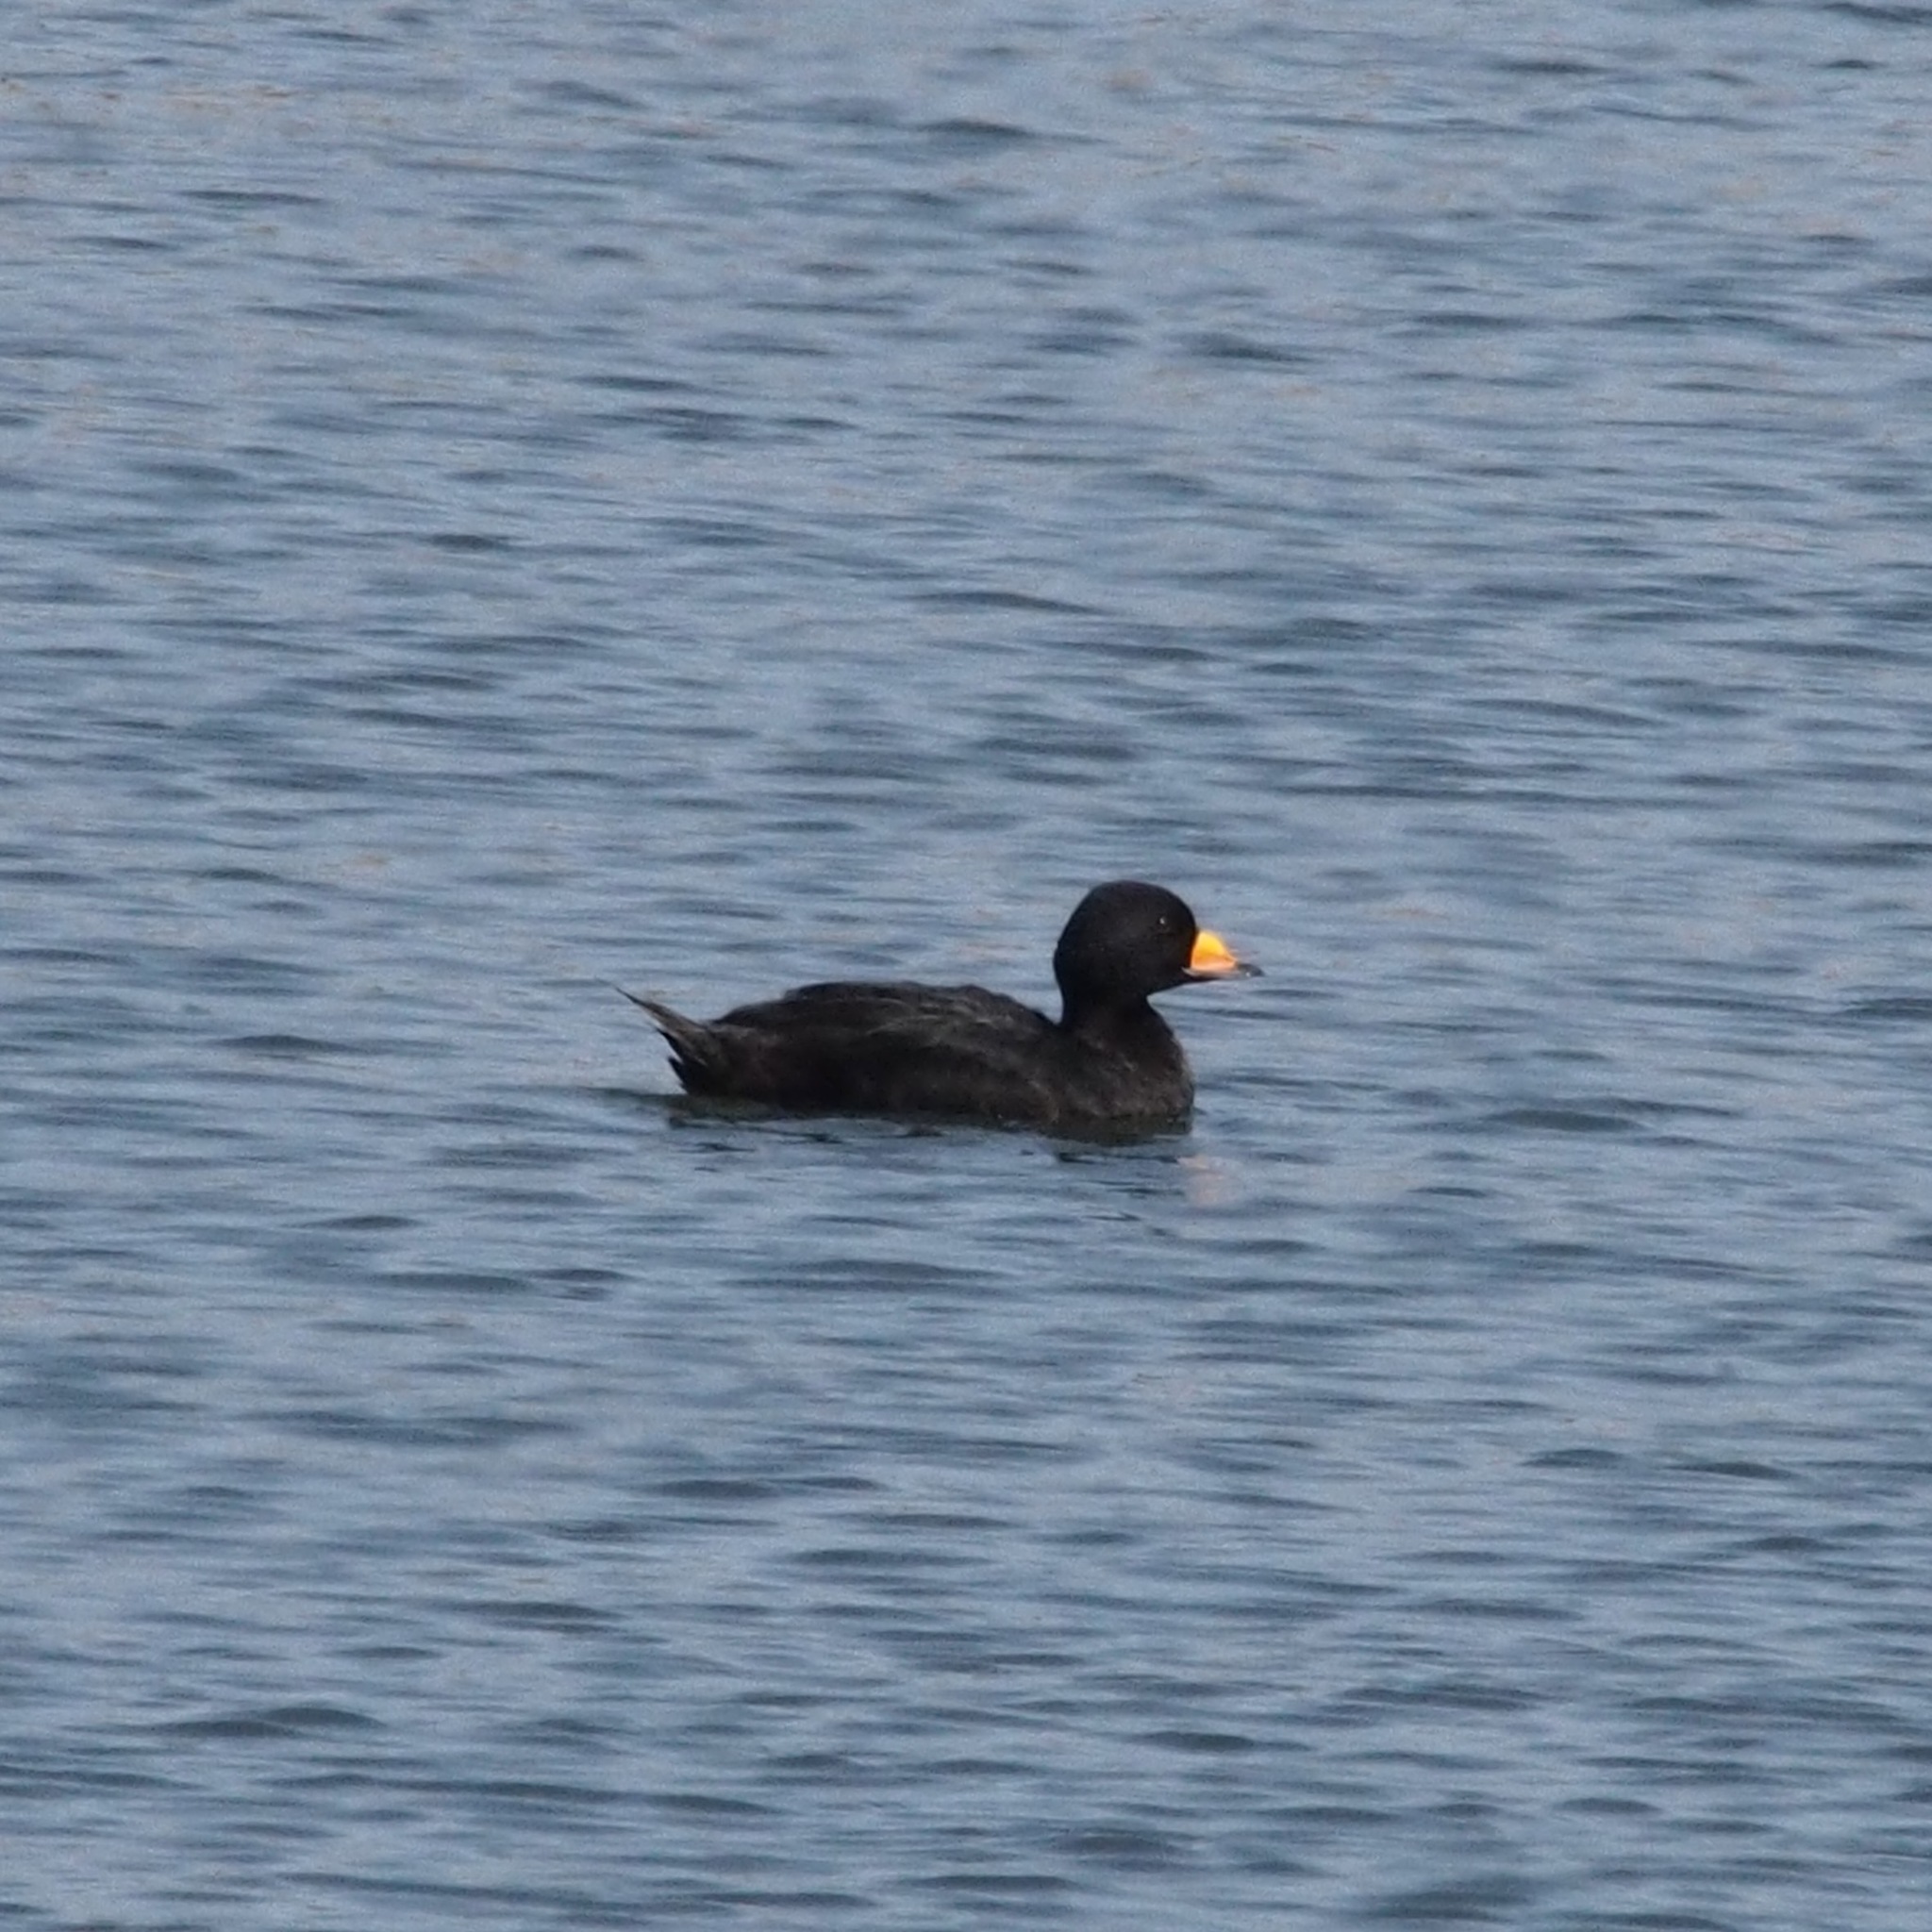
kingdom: Animalia
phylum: Chordata
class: Aves
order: Anseriformes
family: Anatidae
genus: Melanitta
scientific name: Melanitta americana
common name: Black scoter
